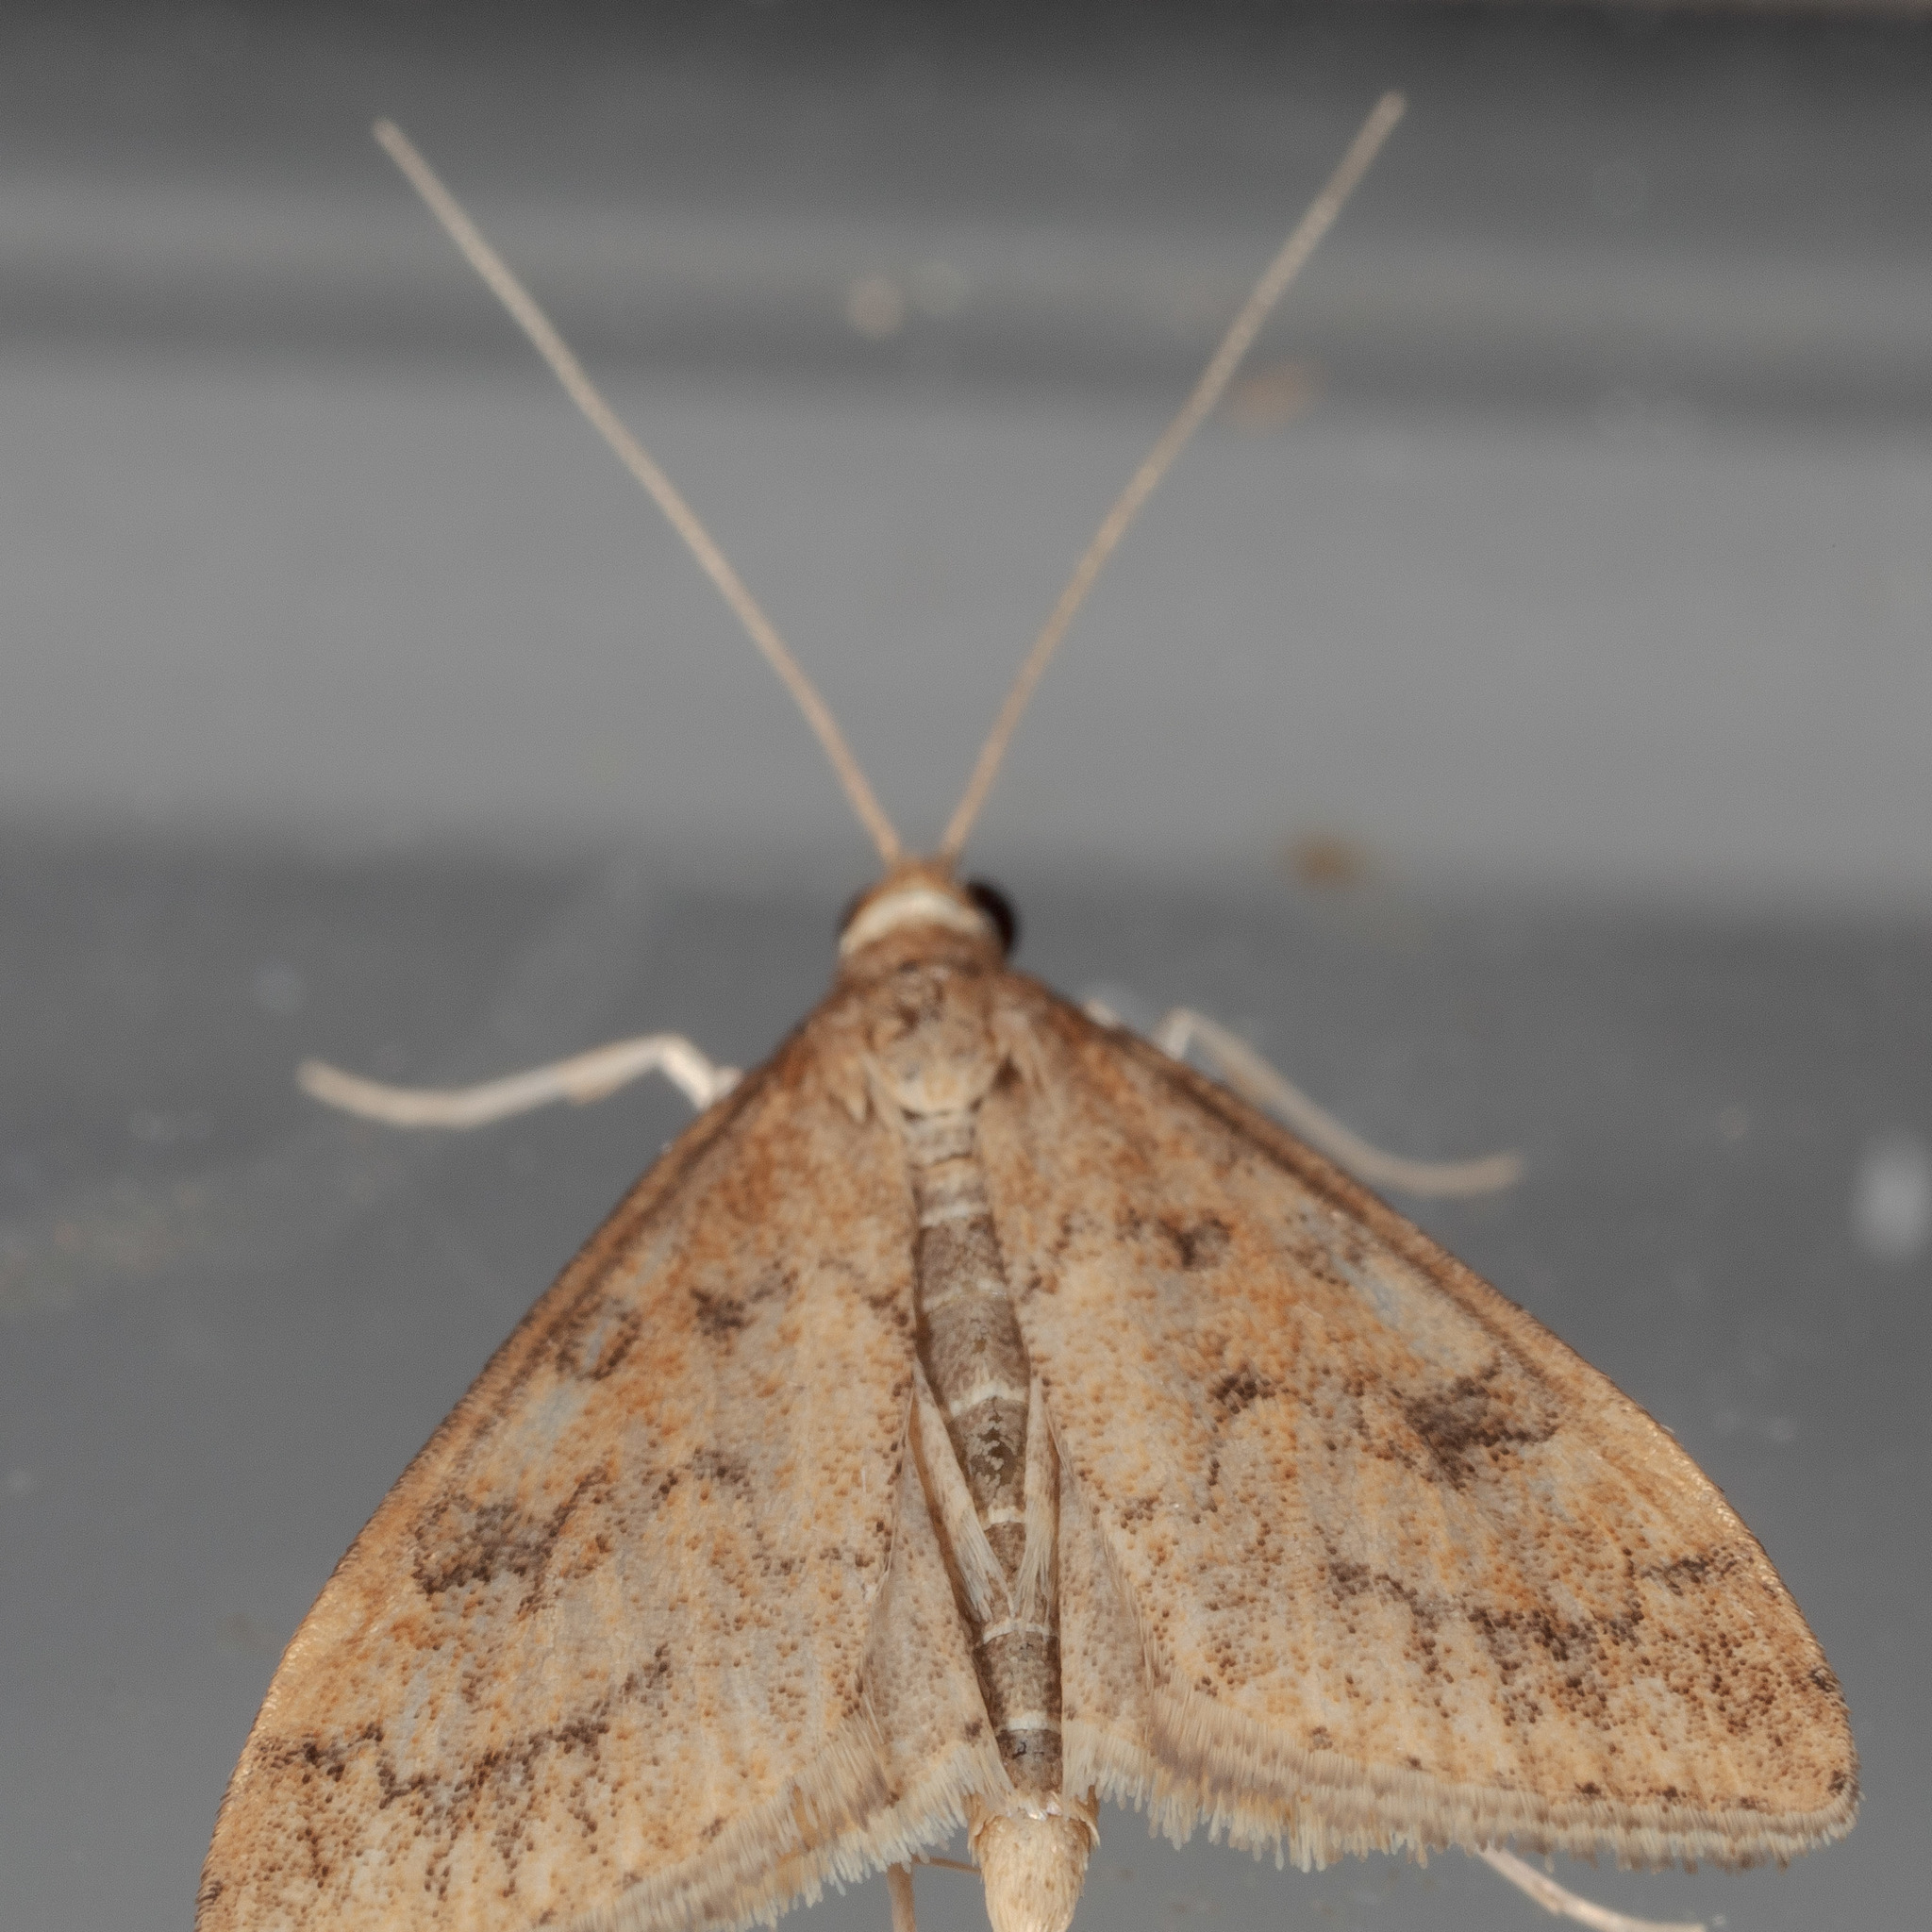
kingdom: Animalia
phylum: Arthropoda
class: Insecta
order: Lepidoptera
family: Crambidae
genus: Udea
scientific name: Udea rubigalis
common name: Celery leaftier moth
